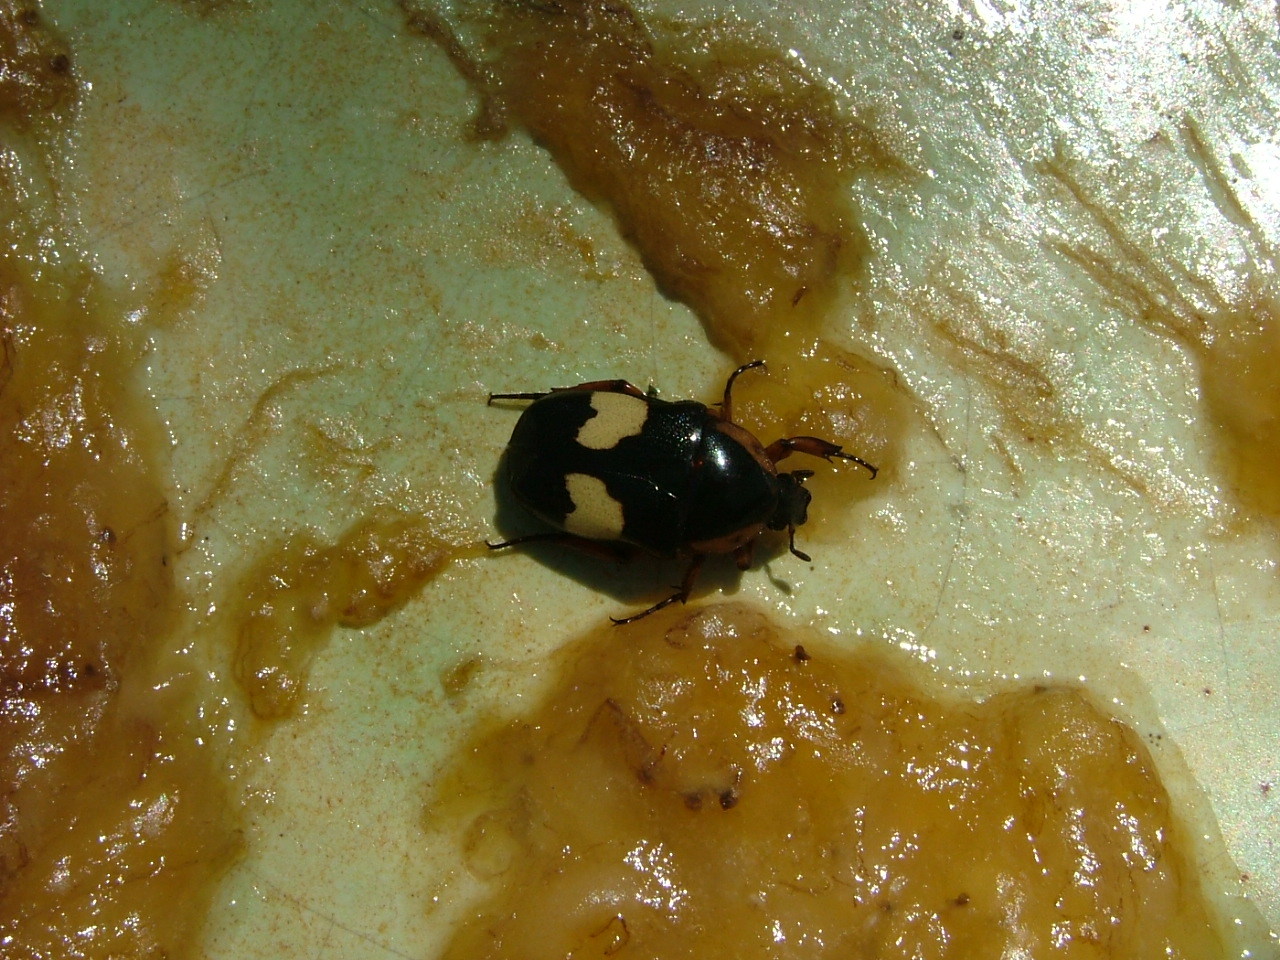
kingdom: Animalia
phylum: Arthropoda
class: Insecta
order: Coleoptera
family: Scarabaeidae
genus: Pedinorrhina
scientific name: Pedinorrhina
